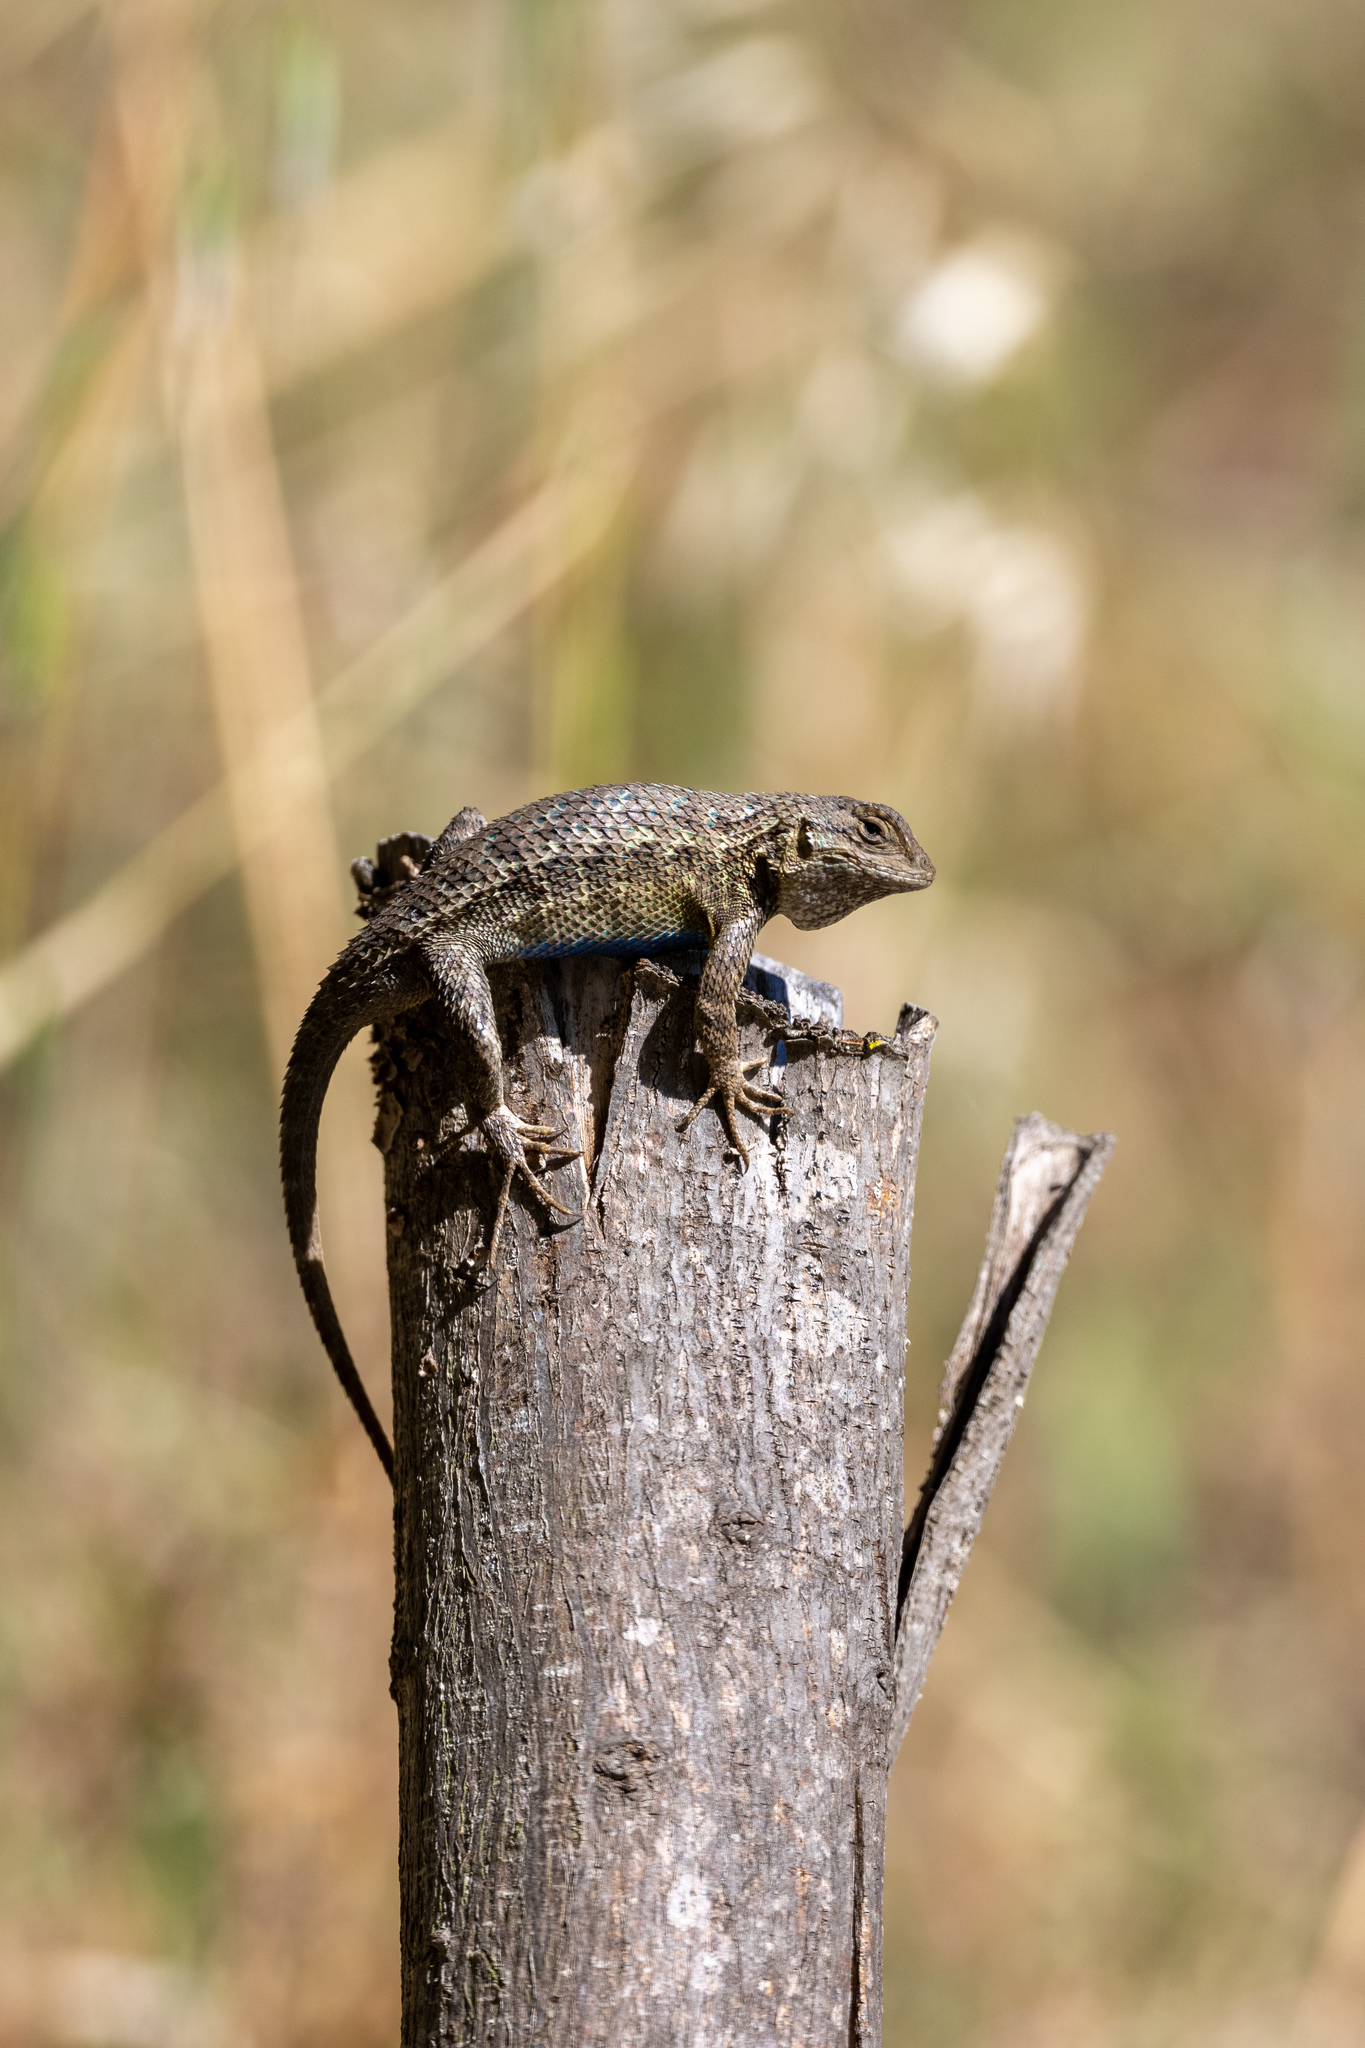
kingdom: Animalia
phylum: Chordata
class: Squamata
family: Phrynosomatidae
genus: Sceloporus
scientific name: Sceloporus occidentalis
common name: Western fence lizard
